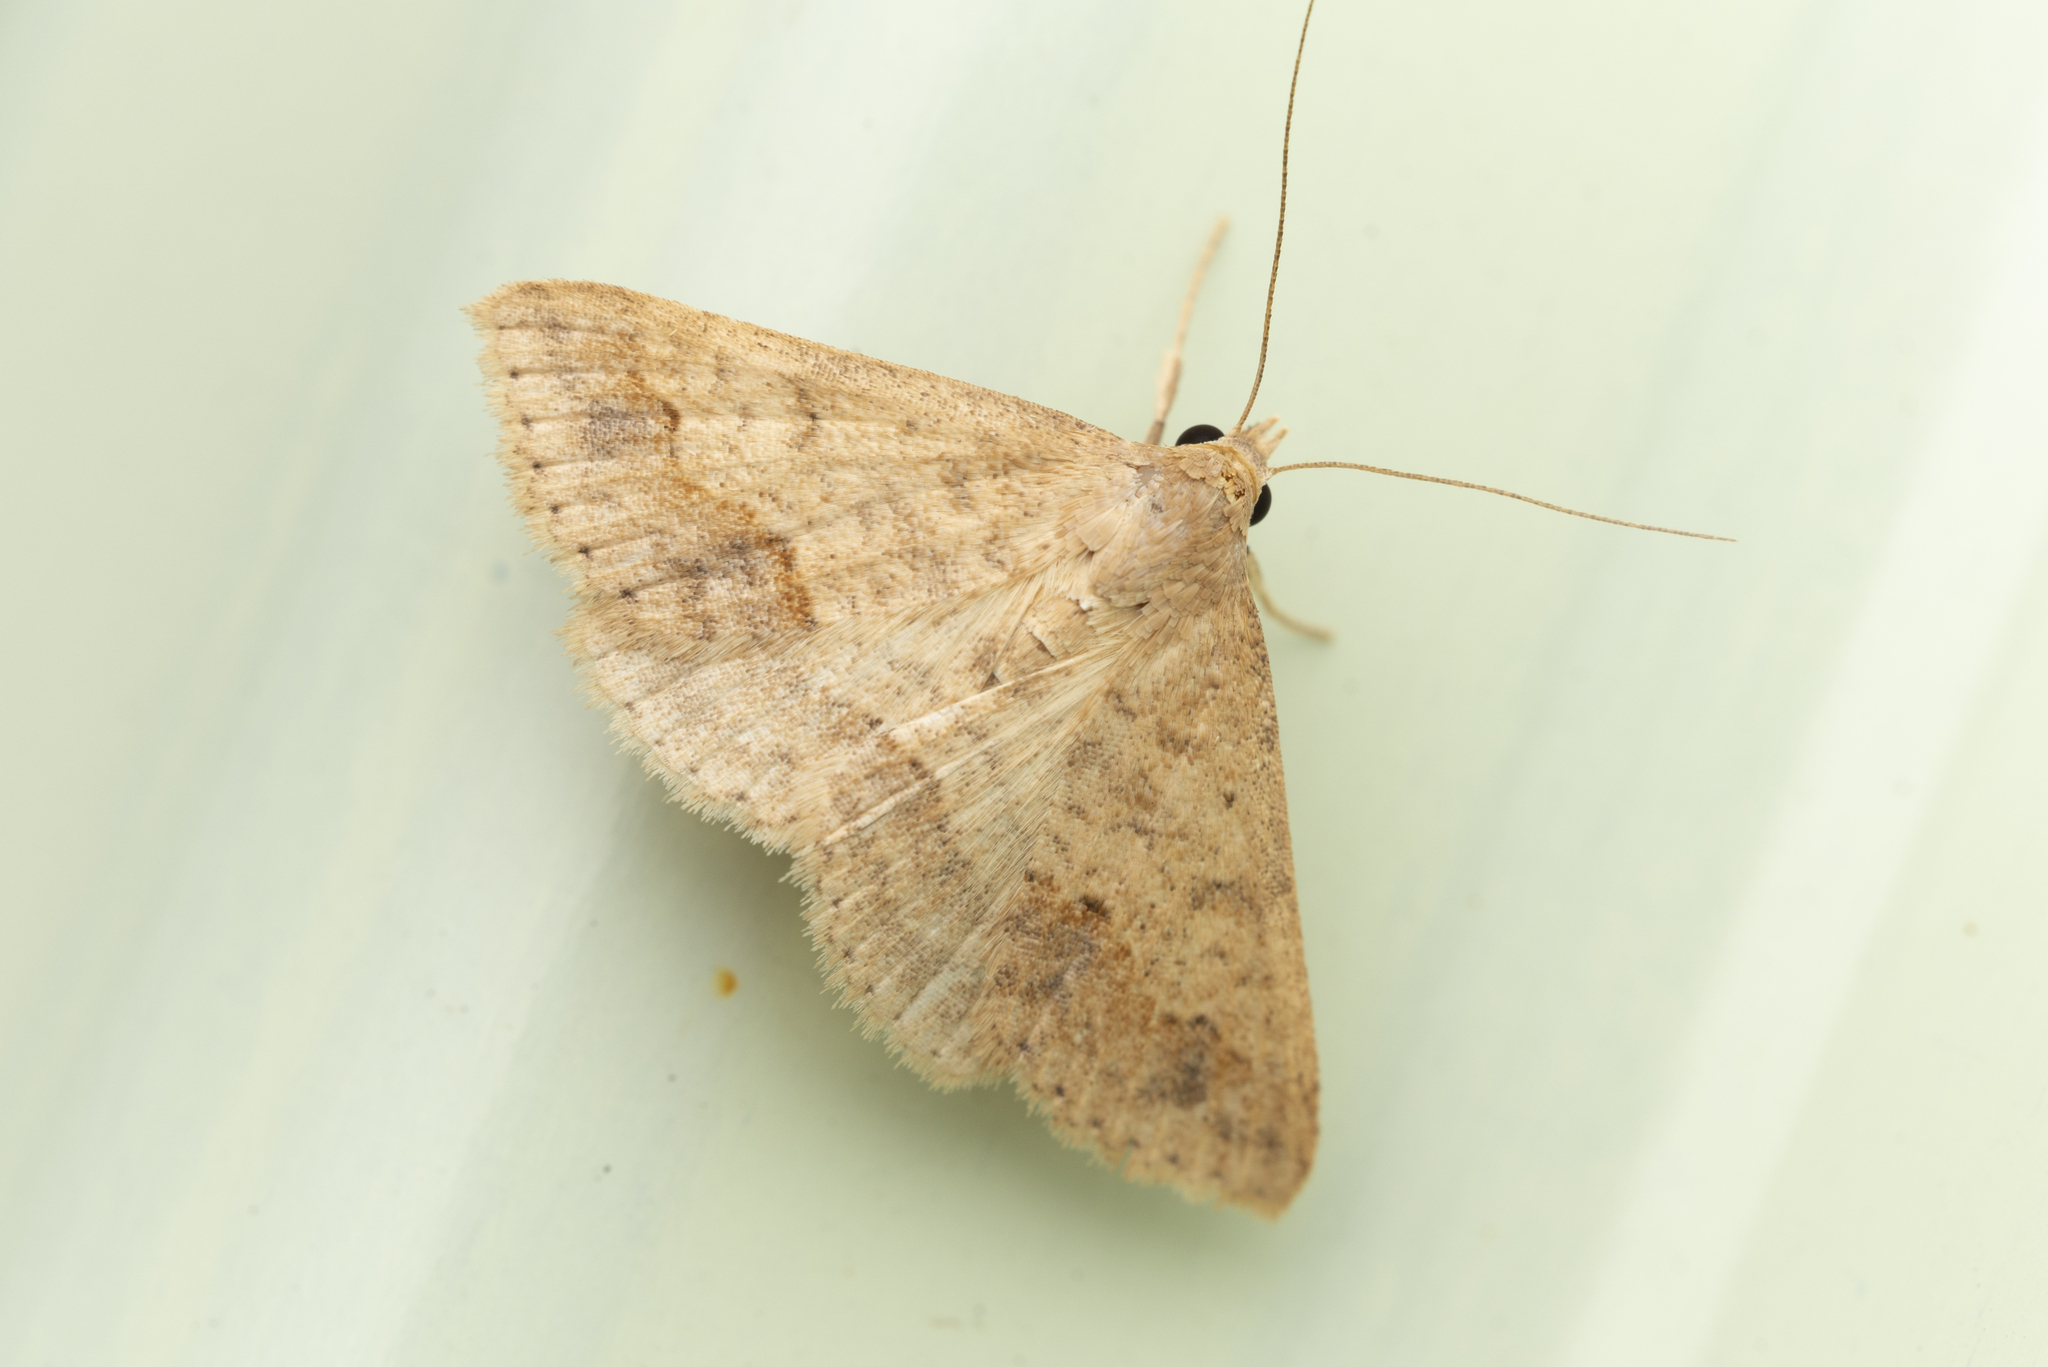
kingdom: Animalia
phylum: Arthropoda
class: Insecta
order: Lepidoptera
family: Erebidae
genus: Gesonia
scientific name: Gesonia obeditalis
